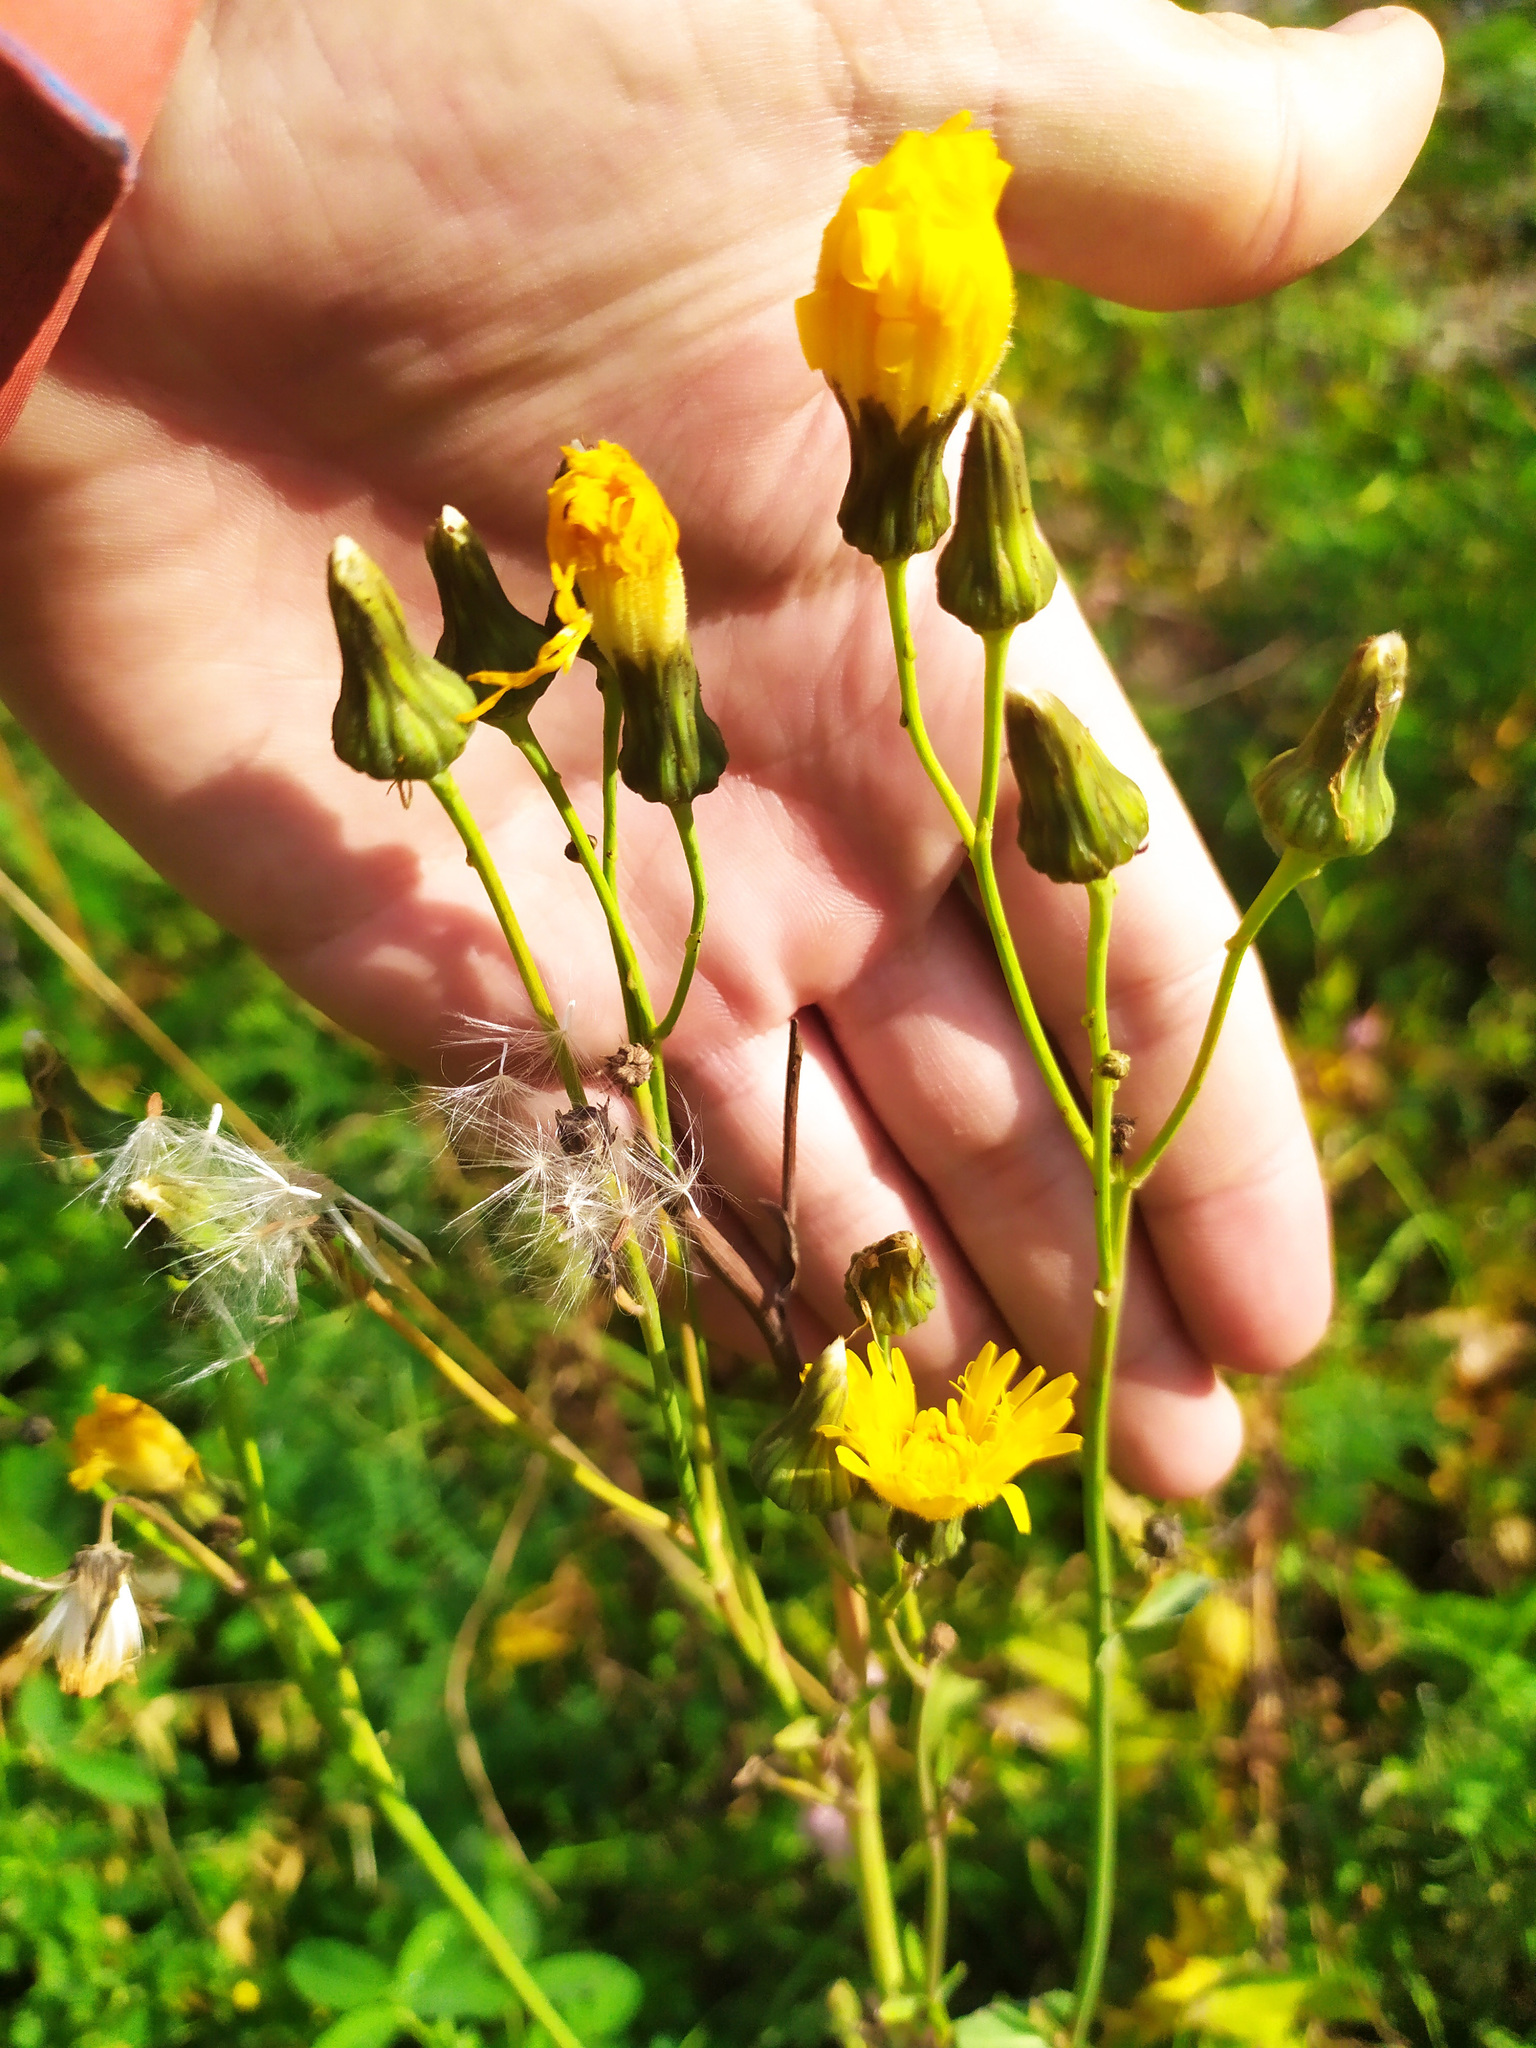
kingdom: Plantae
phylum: Tracheophyta
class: Magnoliopsida
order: Asterales
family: Asteraceae
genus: Sonchus
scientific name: Sonchus arvensis
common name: Perennial sow-thistle
